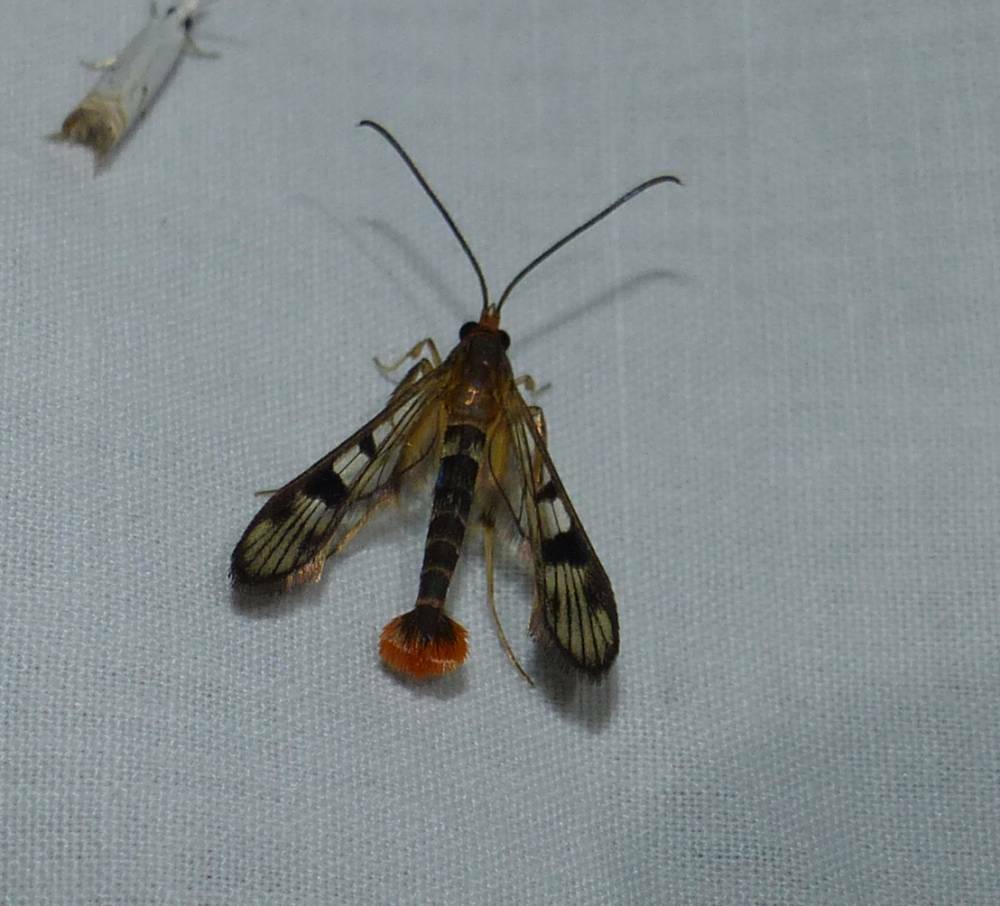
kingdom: Animalia
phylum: Arthropoda
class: Insecta
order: Lepidoptera
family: Sesiidae
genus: Synanthedon
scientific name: Synanthedon acerni
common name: Maple callus borer moth
